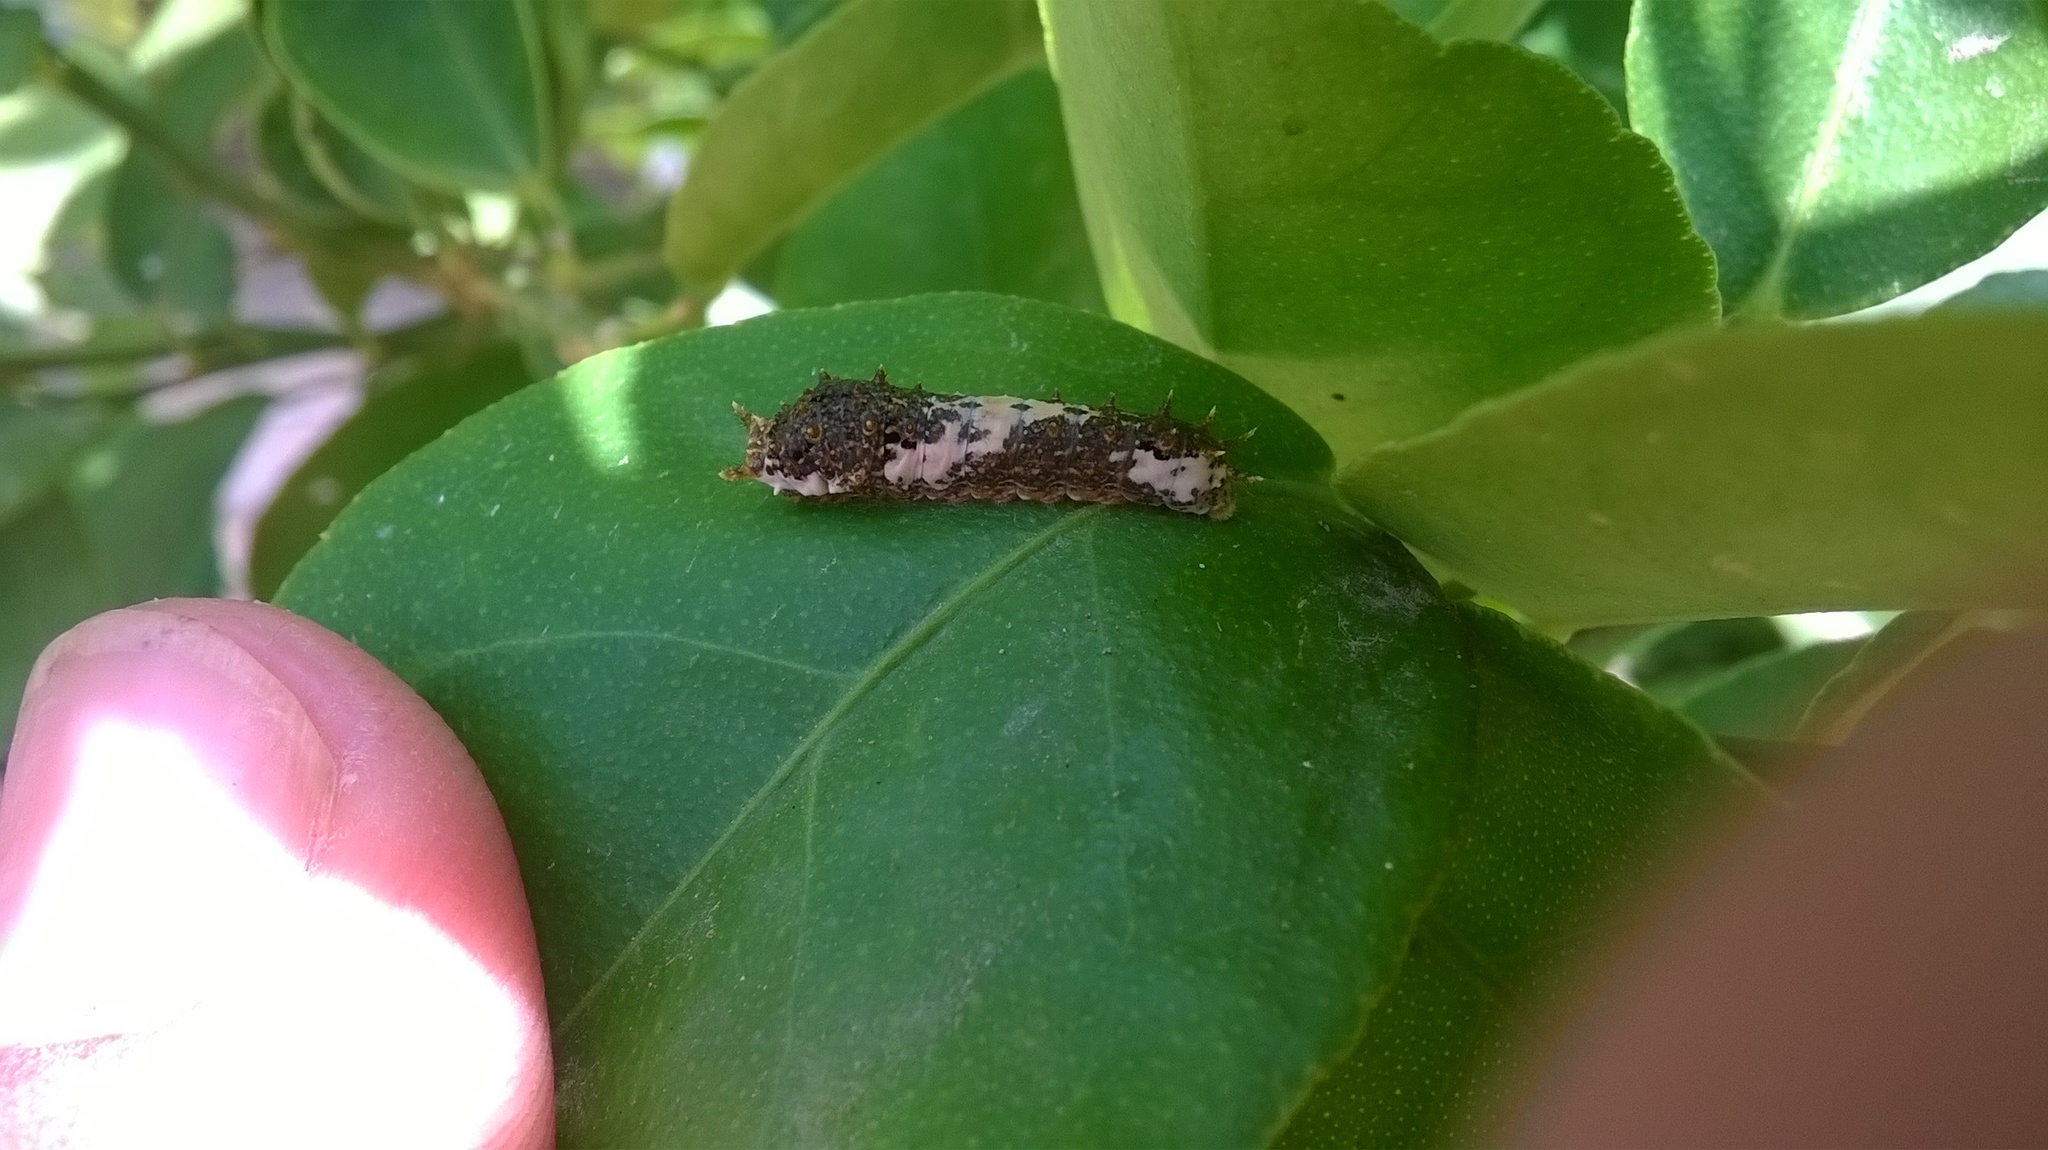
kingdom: Animalia
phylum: Arthropoda
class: Insecta
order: Lepidoptera
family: Papilionidae
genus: Papilio
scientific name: Papilio demoleus
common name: Lime butterfly
